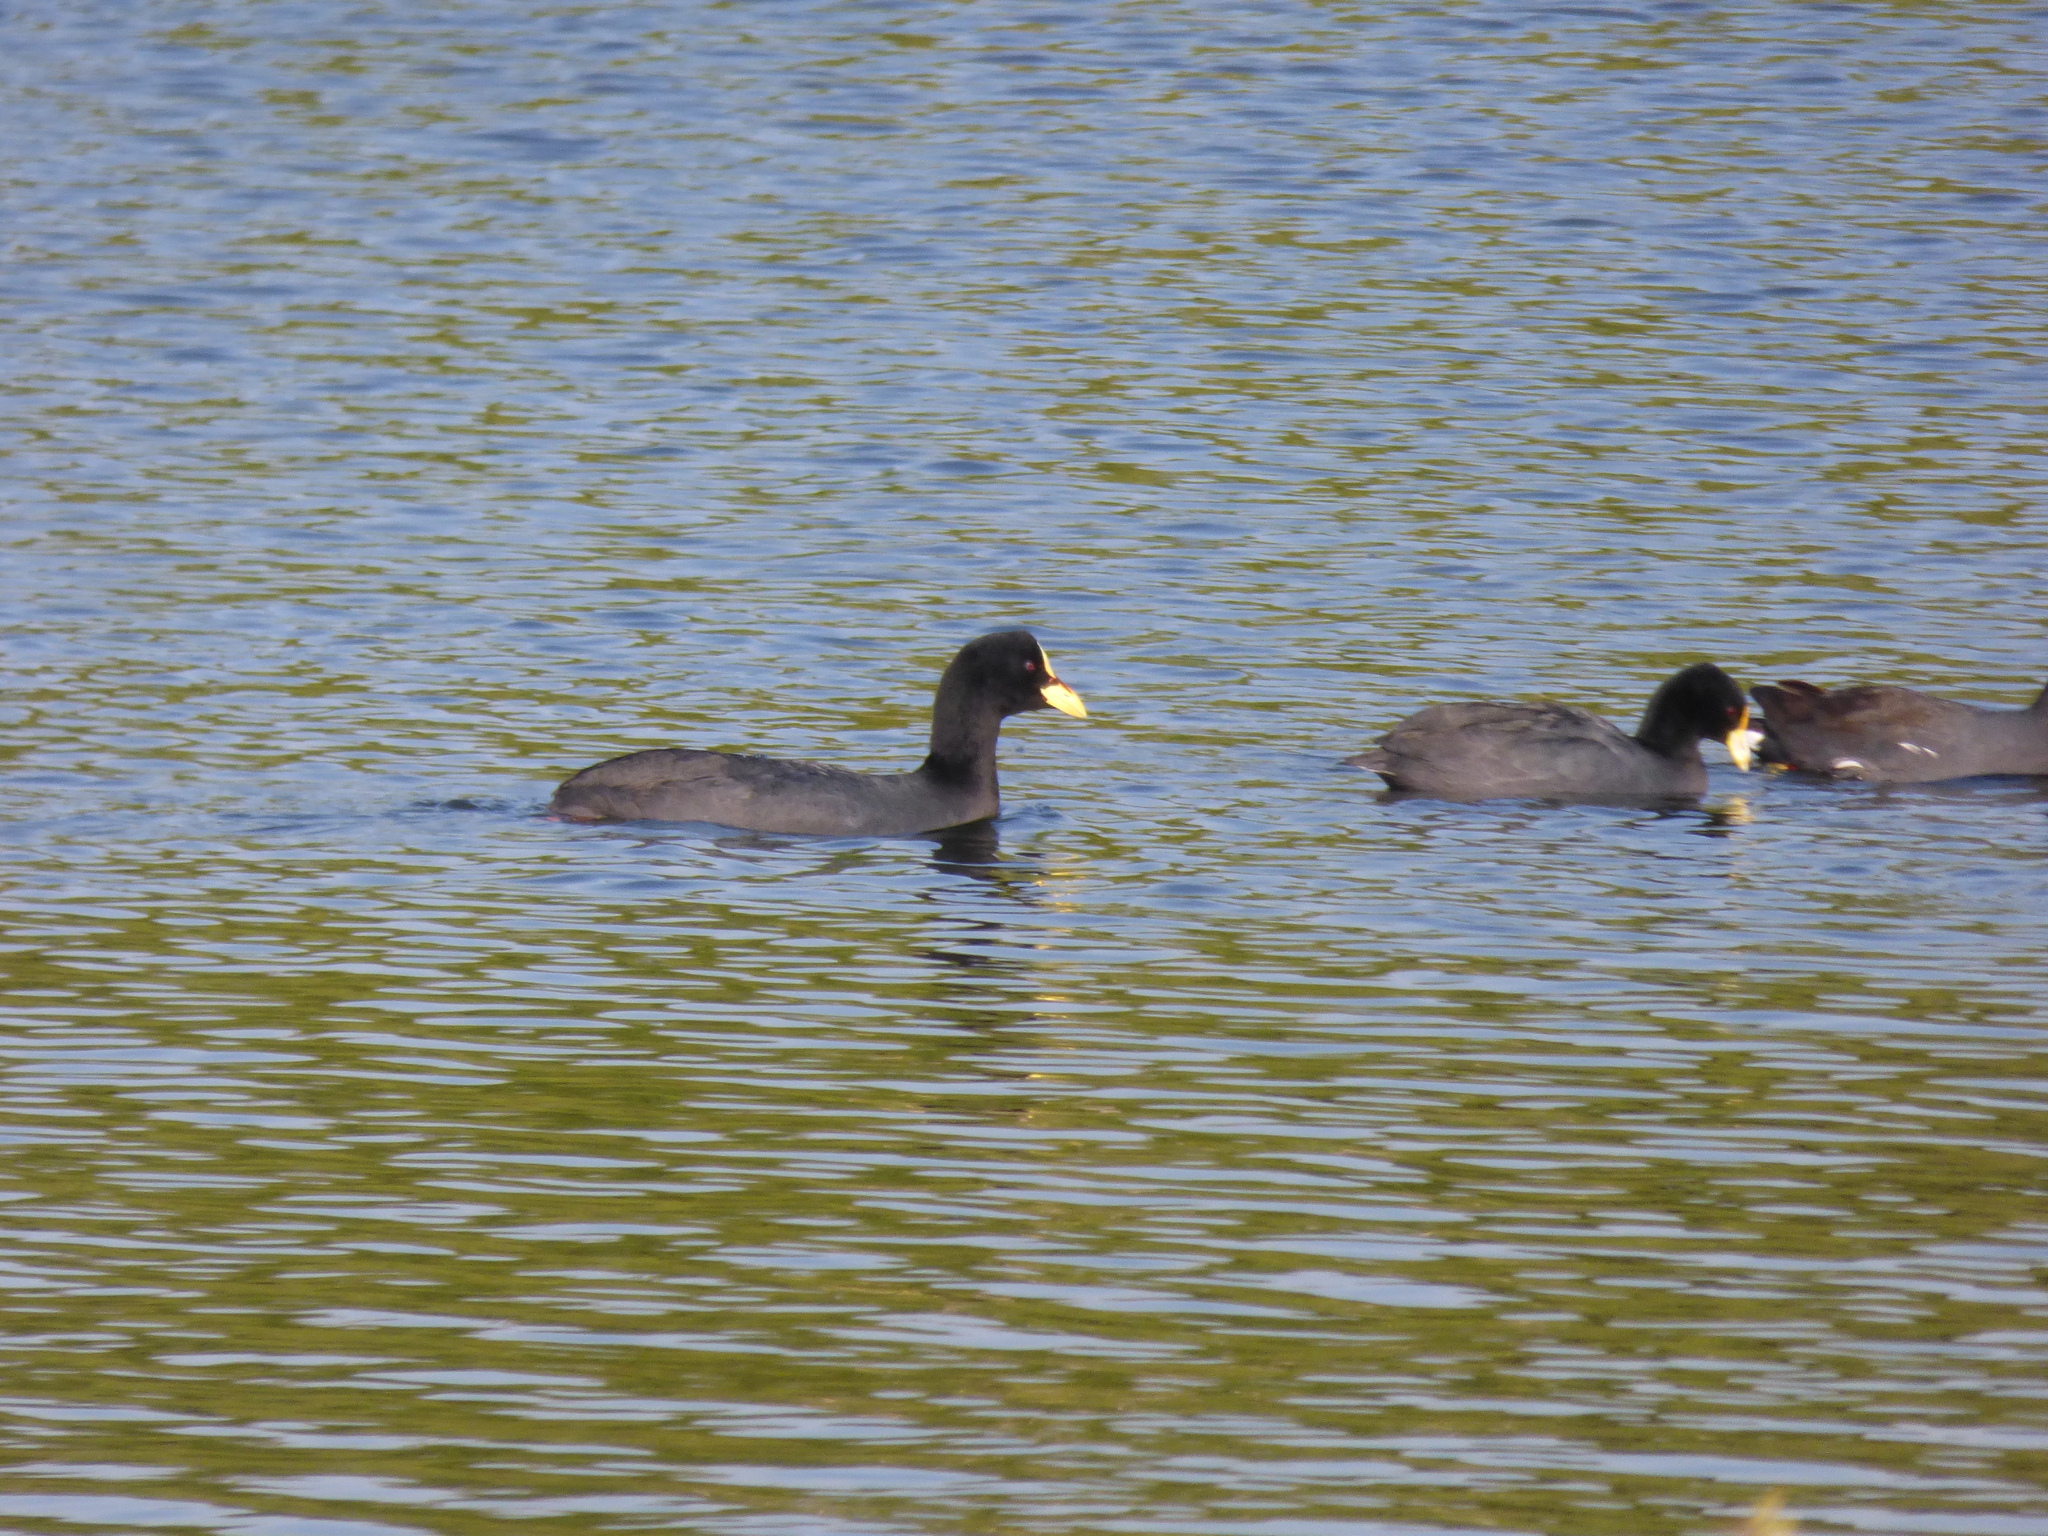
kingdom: Animalia
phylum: Chordata
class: Aves
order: Gruiformes
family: Rallidae
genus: Fulica
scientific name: Fulica armillata
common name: Red-gartered coot
